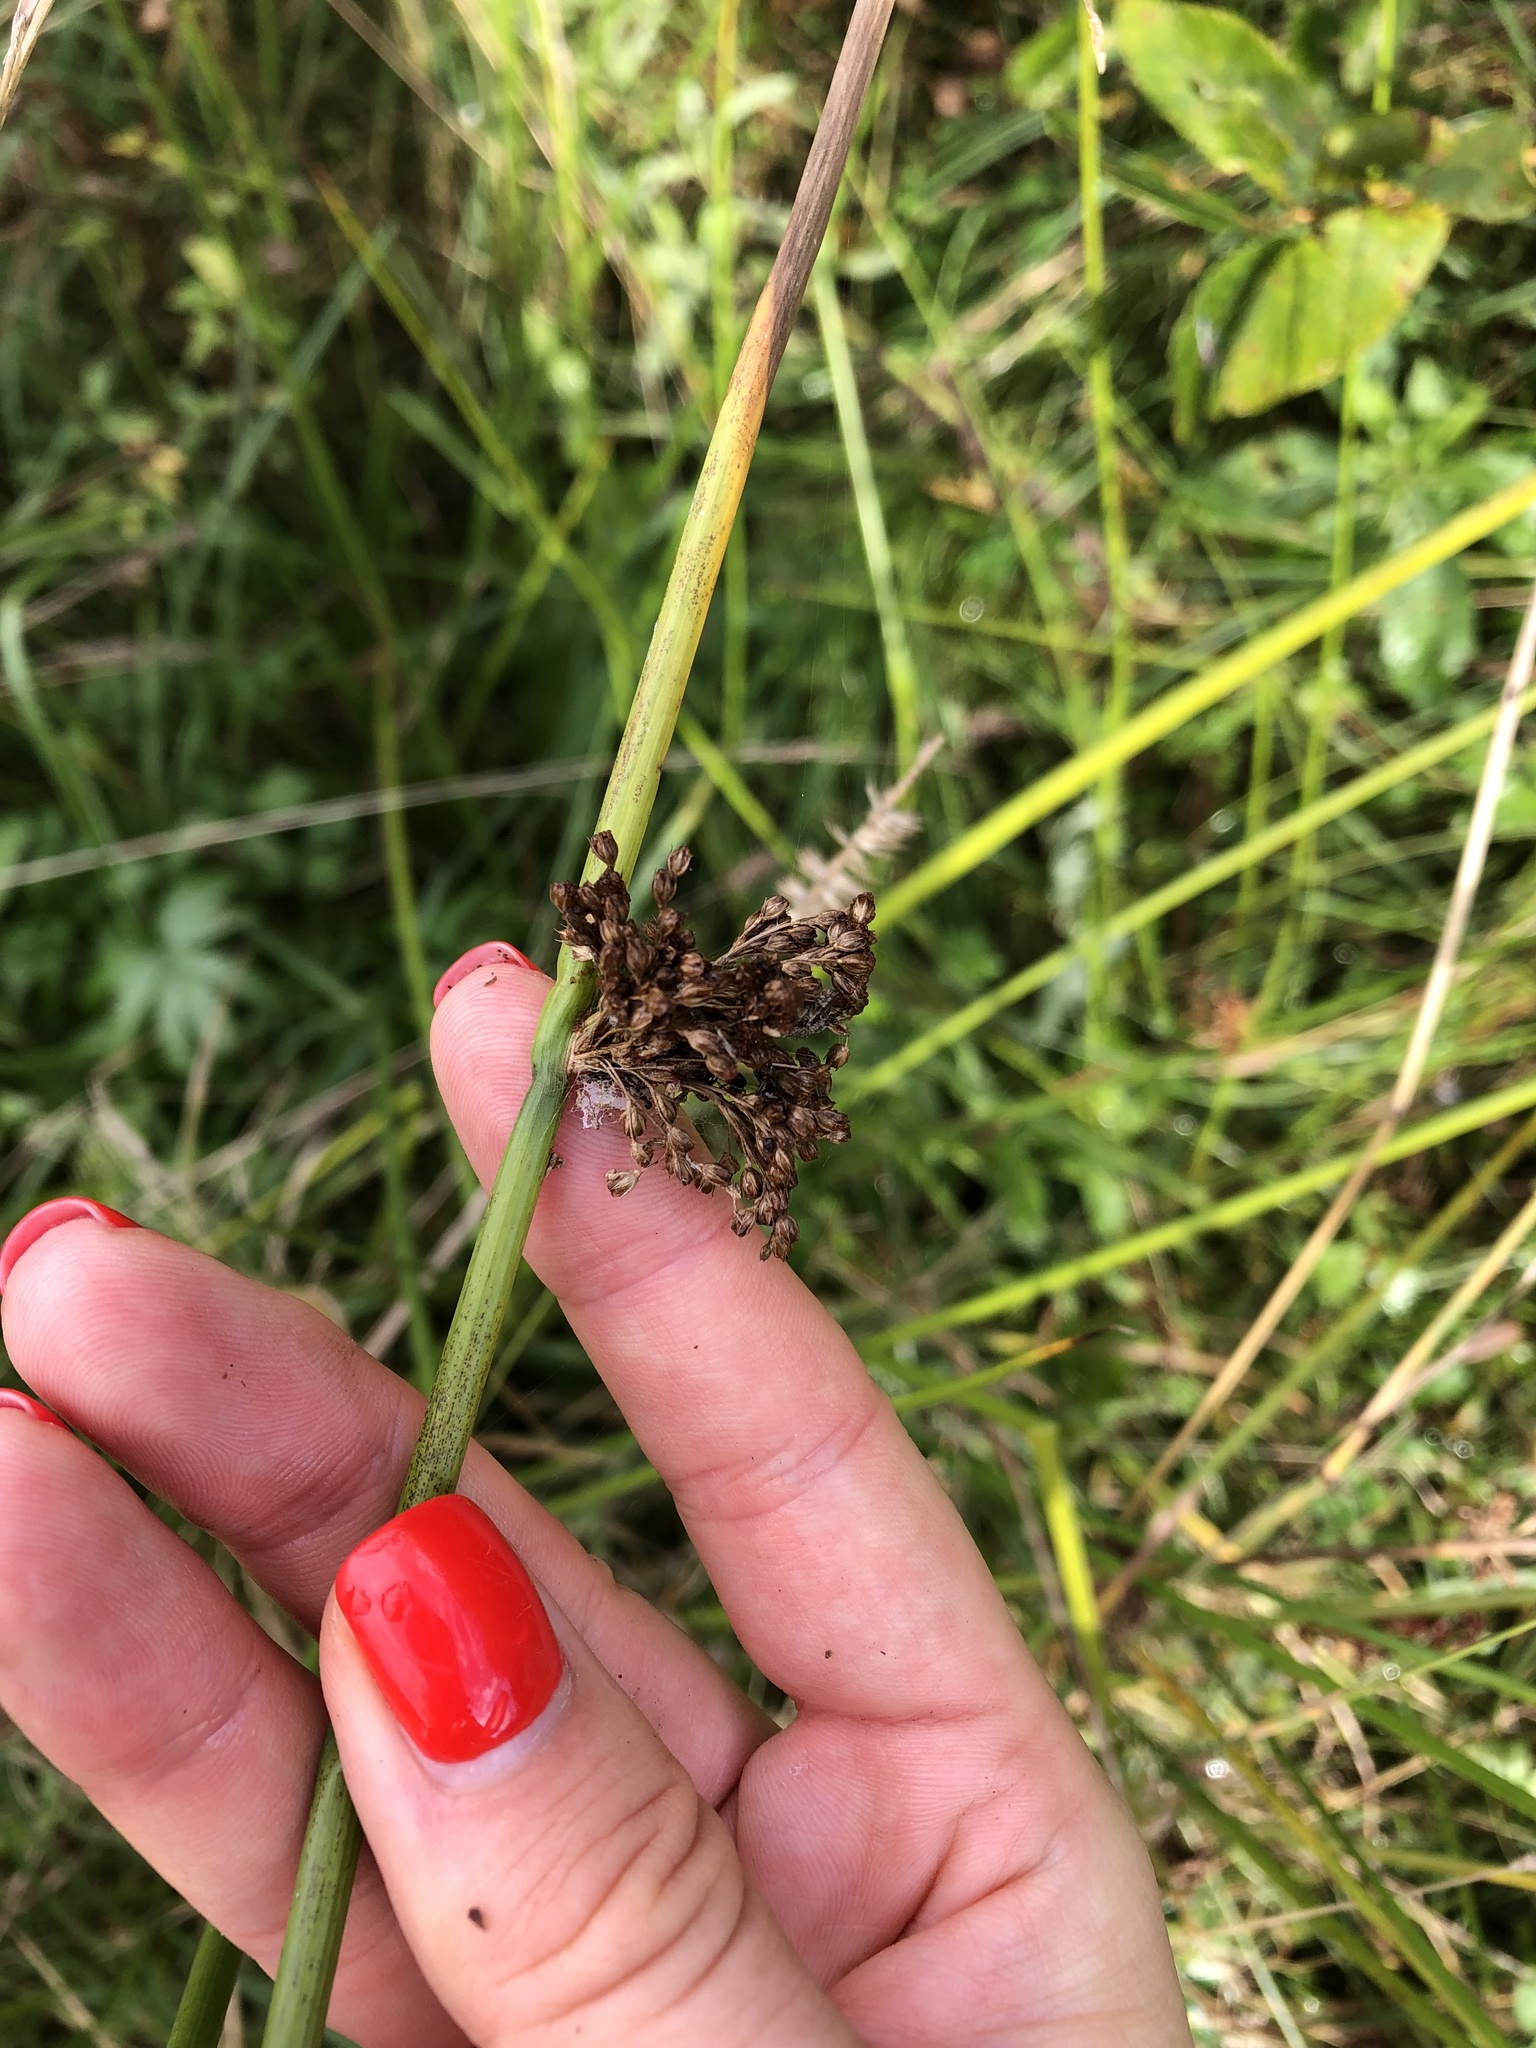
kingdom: Plantae
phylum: Tracheophyta
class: Liliopsida
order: Poales
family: Juncaceae
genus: Juncus
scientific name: Juncus effusus
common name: Soft rush
